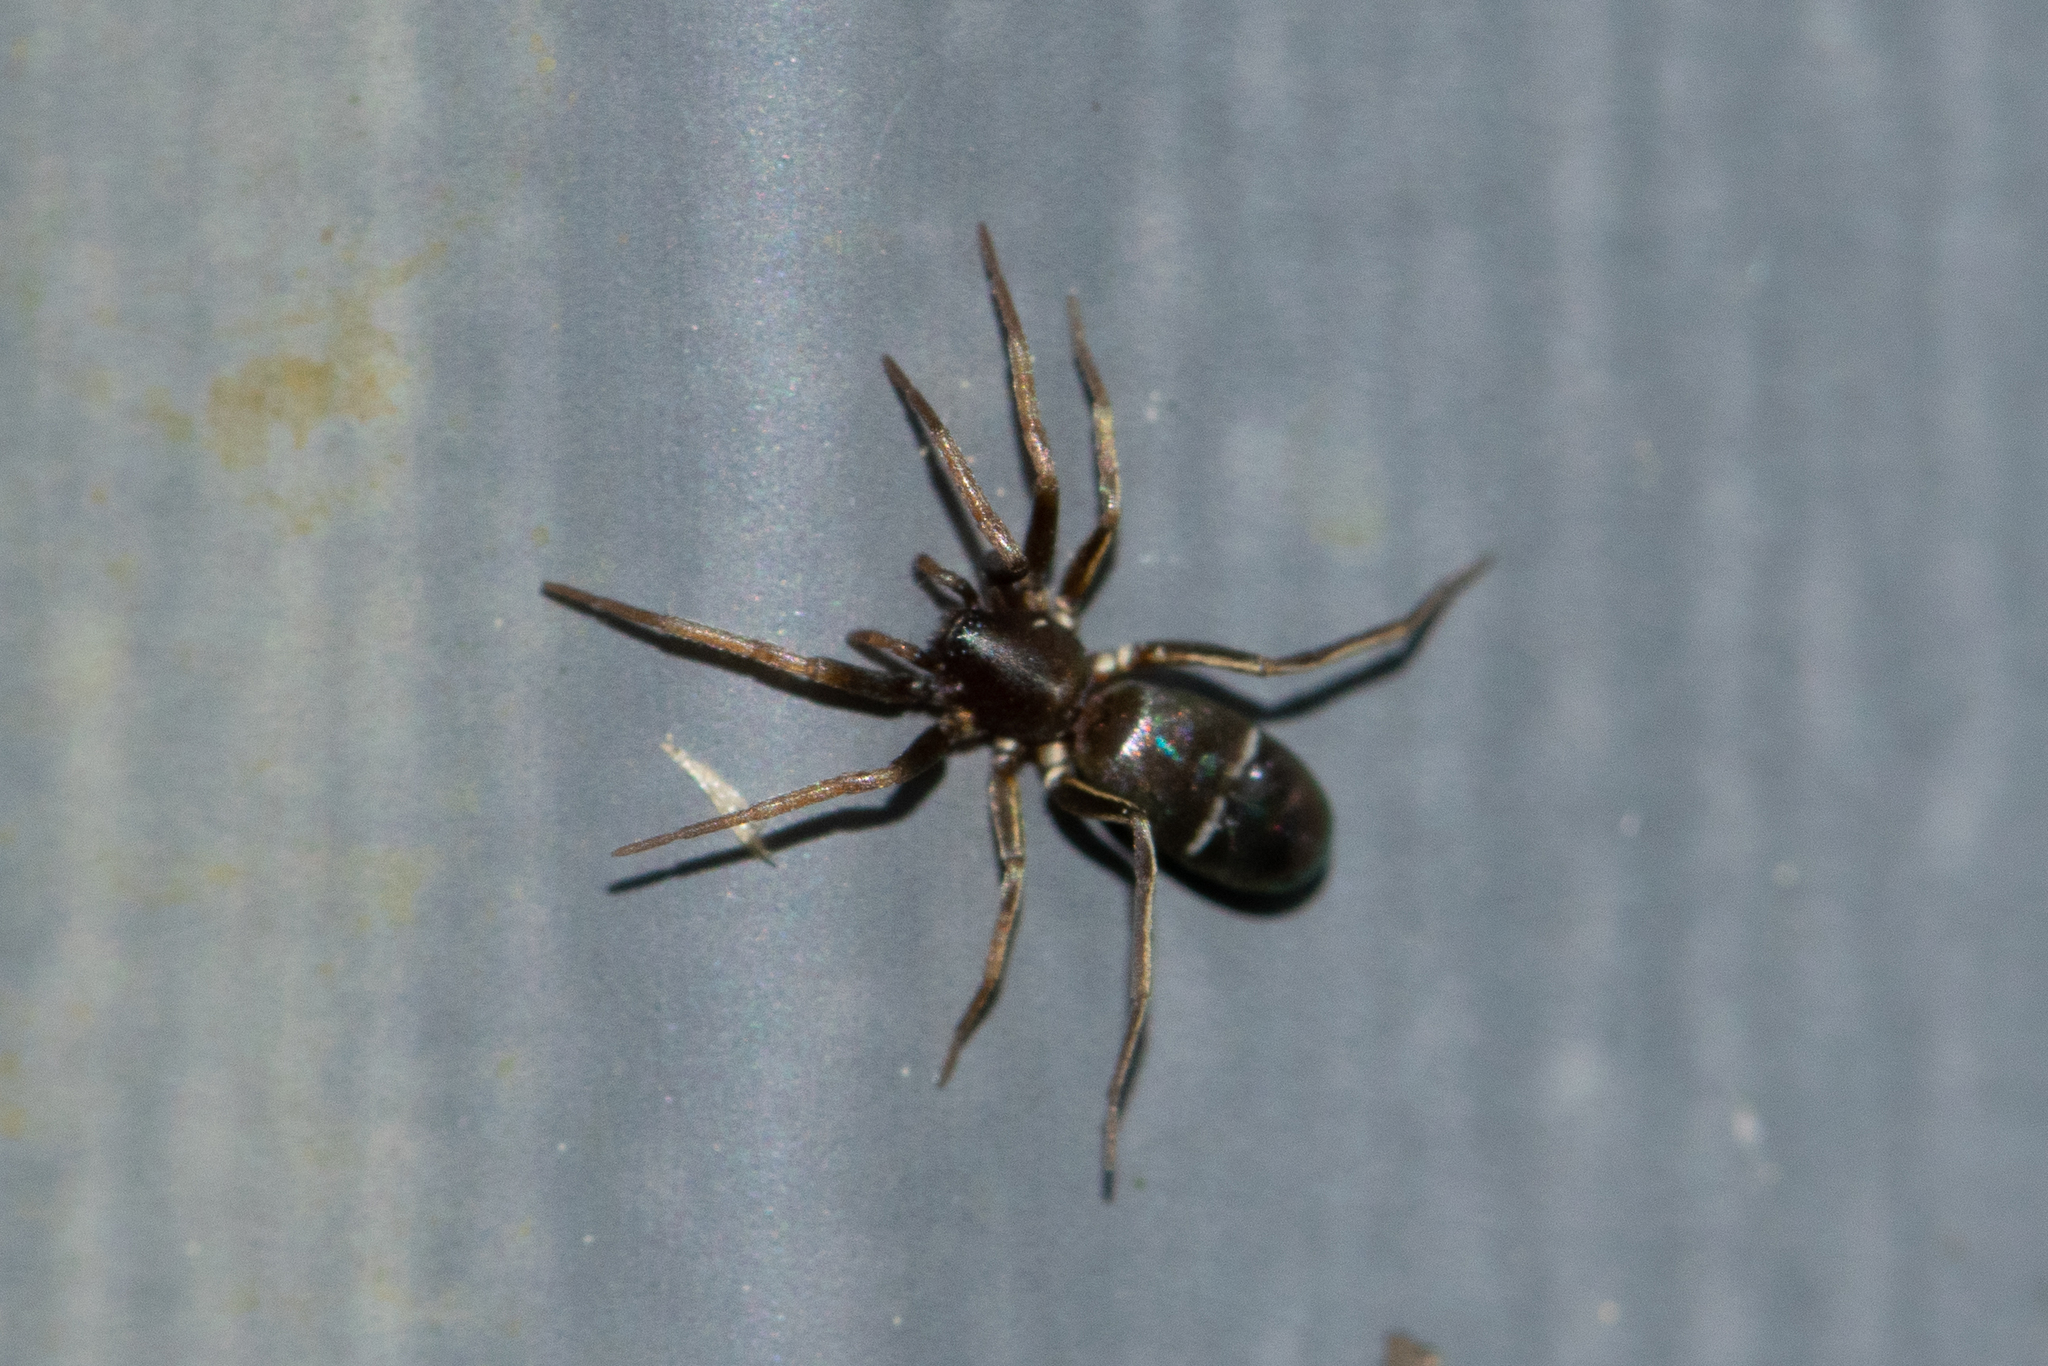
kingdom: Animalia
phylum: Arthropoda
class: Arachnida
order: Araneae
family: Gnaphosidae
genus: Micaria
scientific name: Micaria micans
